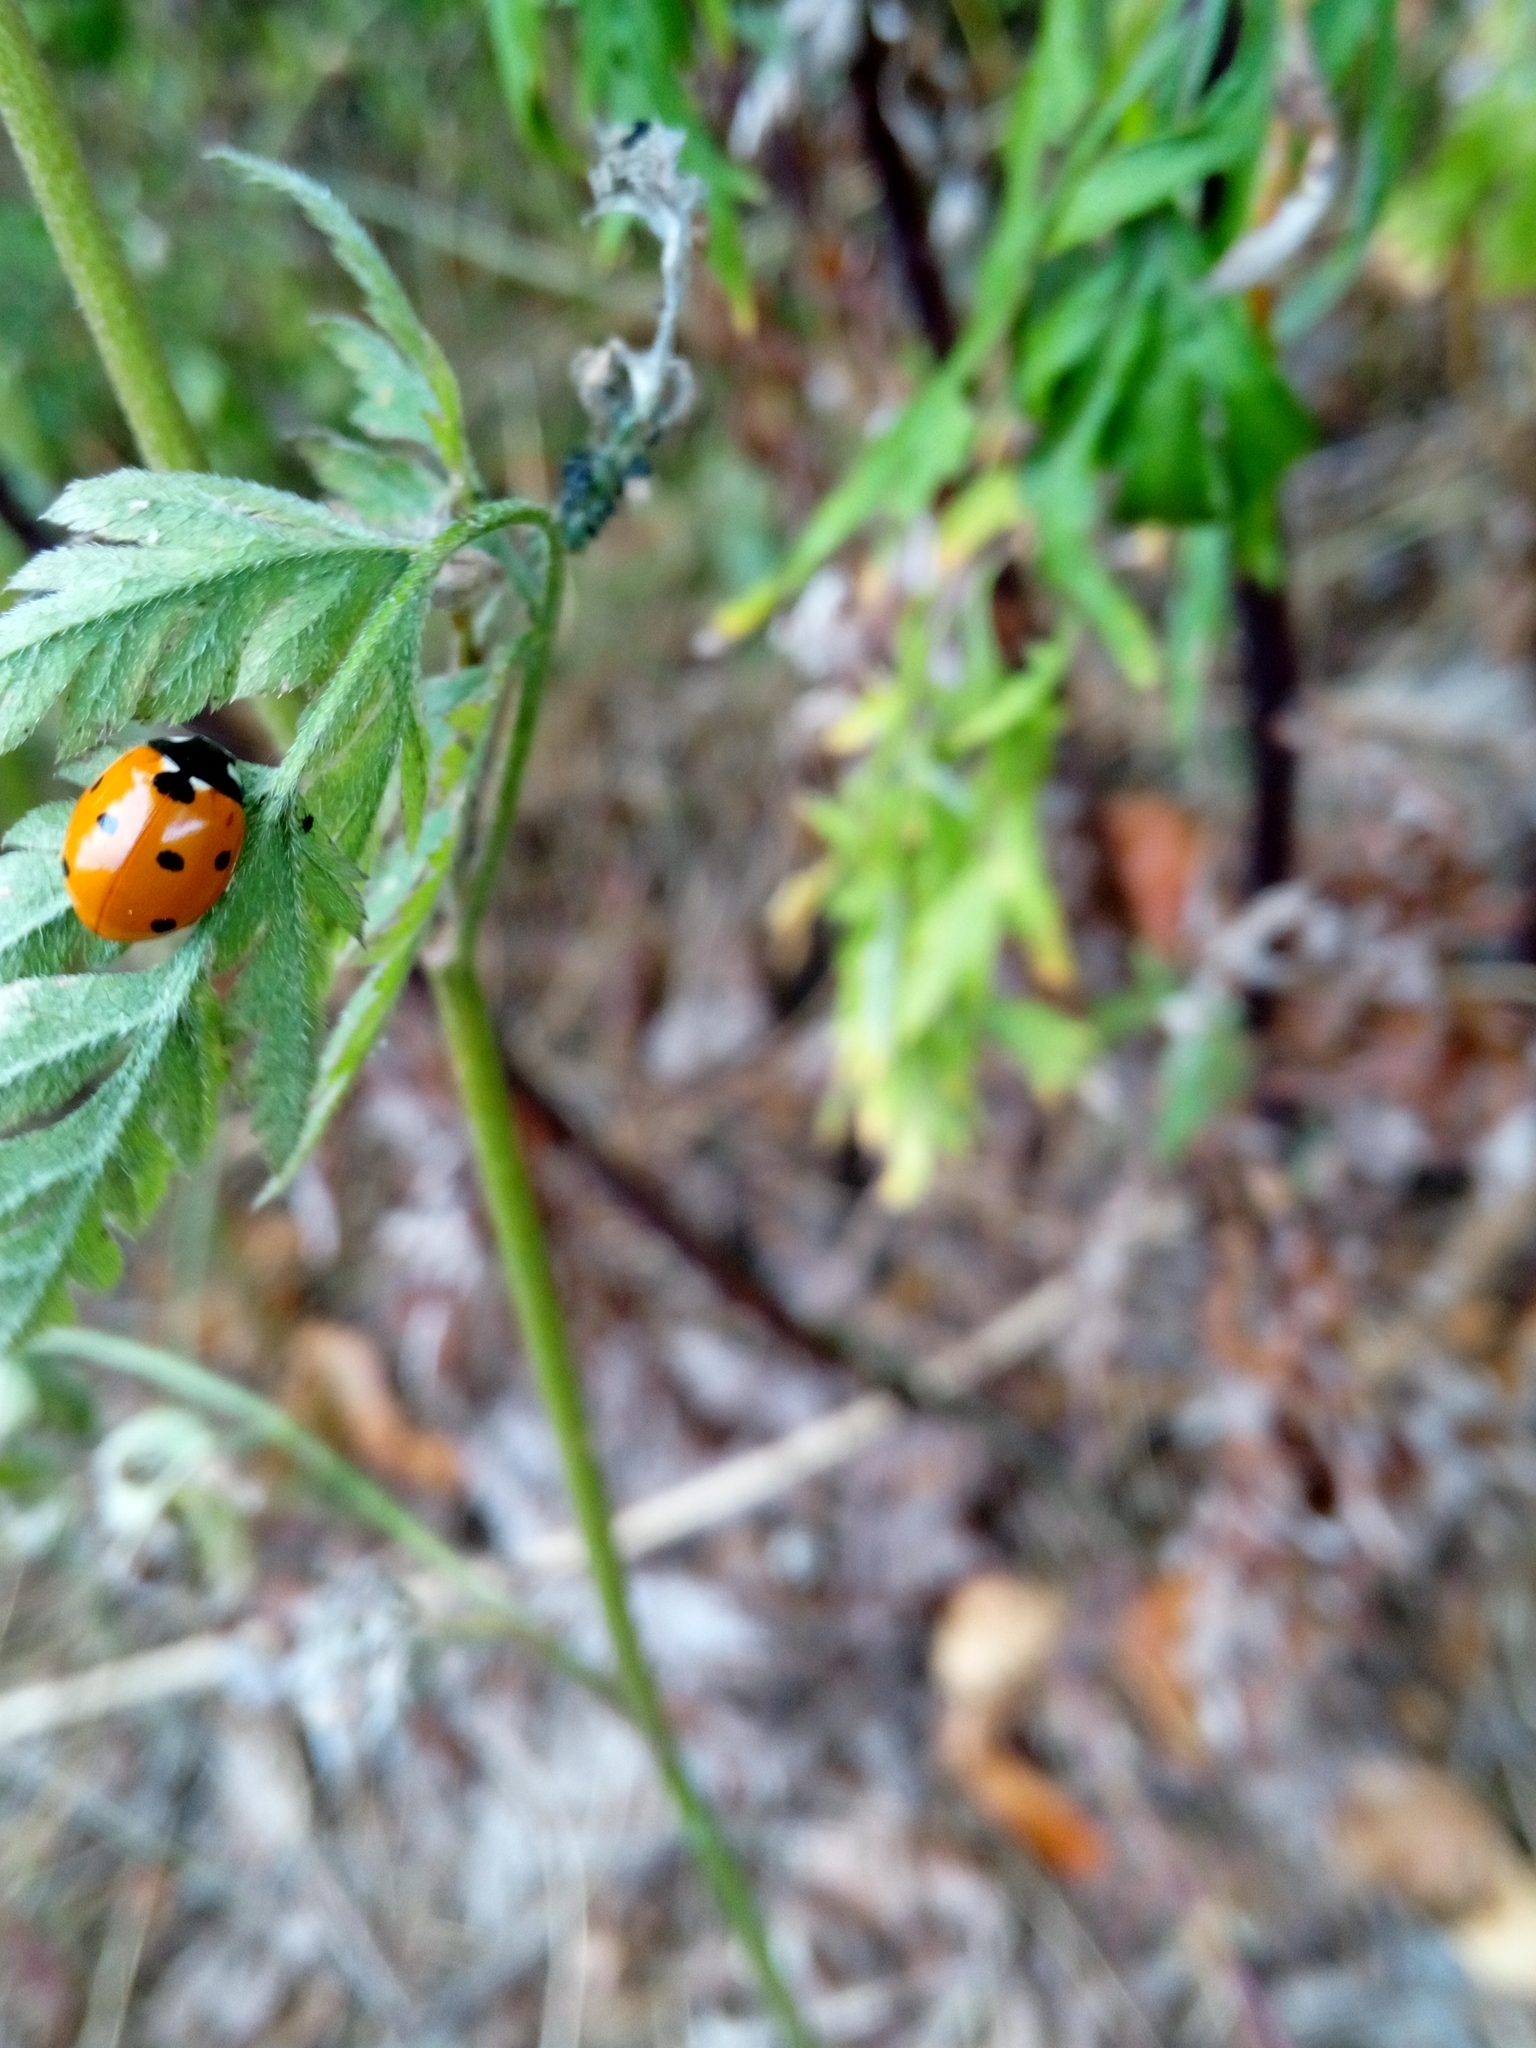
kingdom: Animalia
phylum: Arthropoda
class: Insecta
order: Coleoptera
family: Coccinellidae
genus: Coccinella
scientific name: Coccinella septempunctata
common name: Sevenspotted lady beetle
